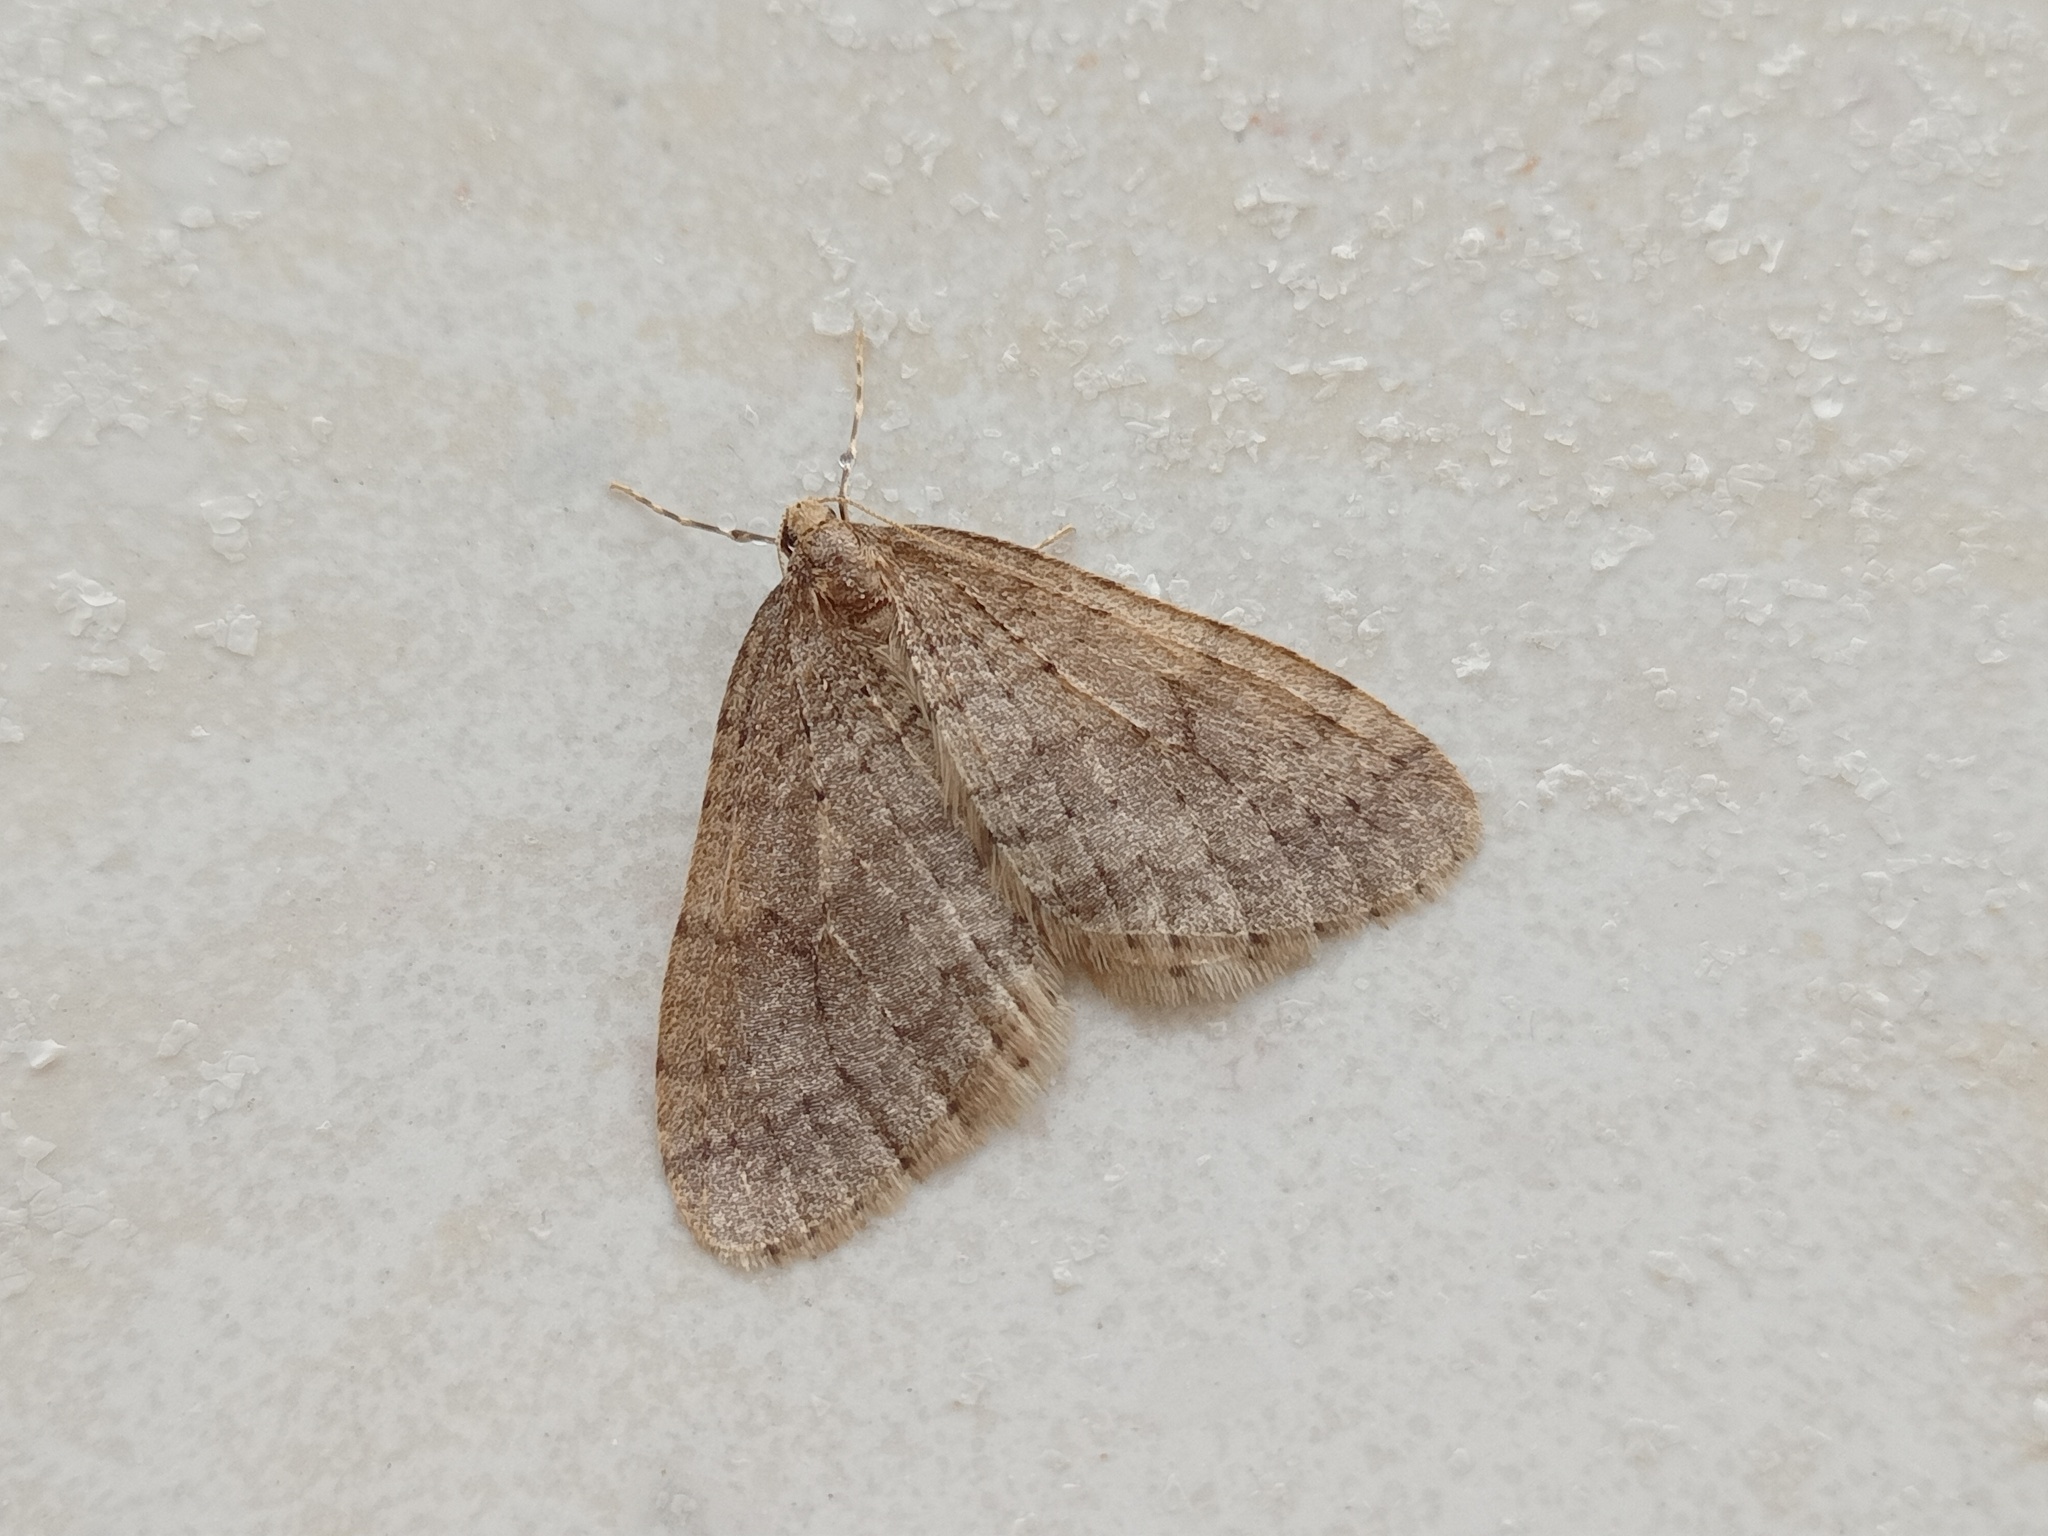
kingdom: Animalia
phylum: Arthropoda
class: Insecta
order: Lepidoptera
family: Geometridae
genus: Operophtera
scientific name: Operophtera brumata
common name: Winter moth
